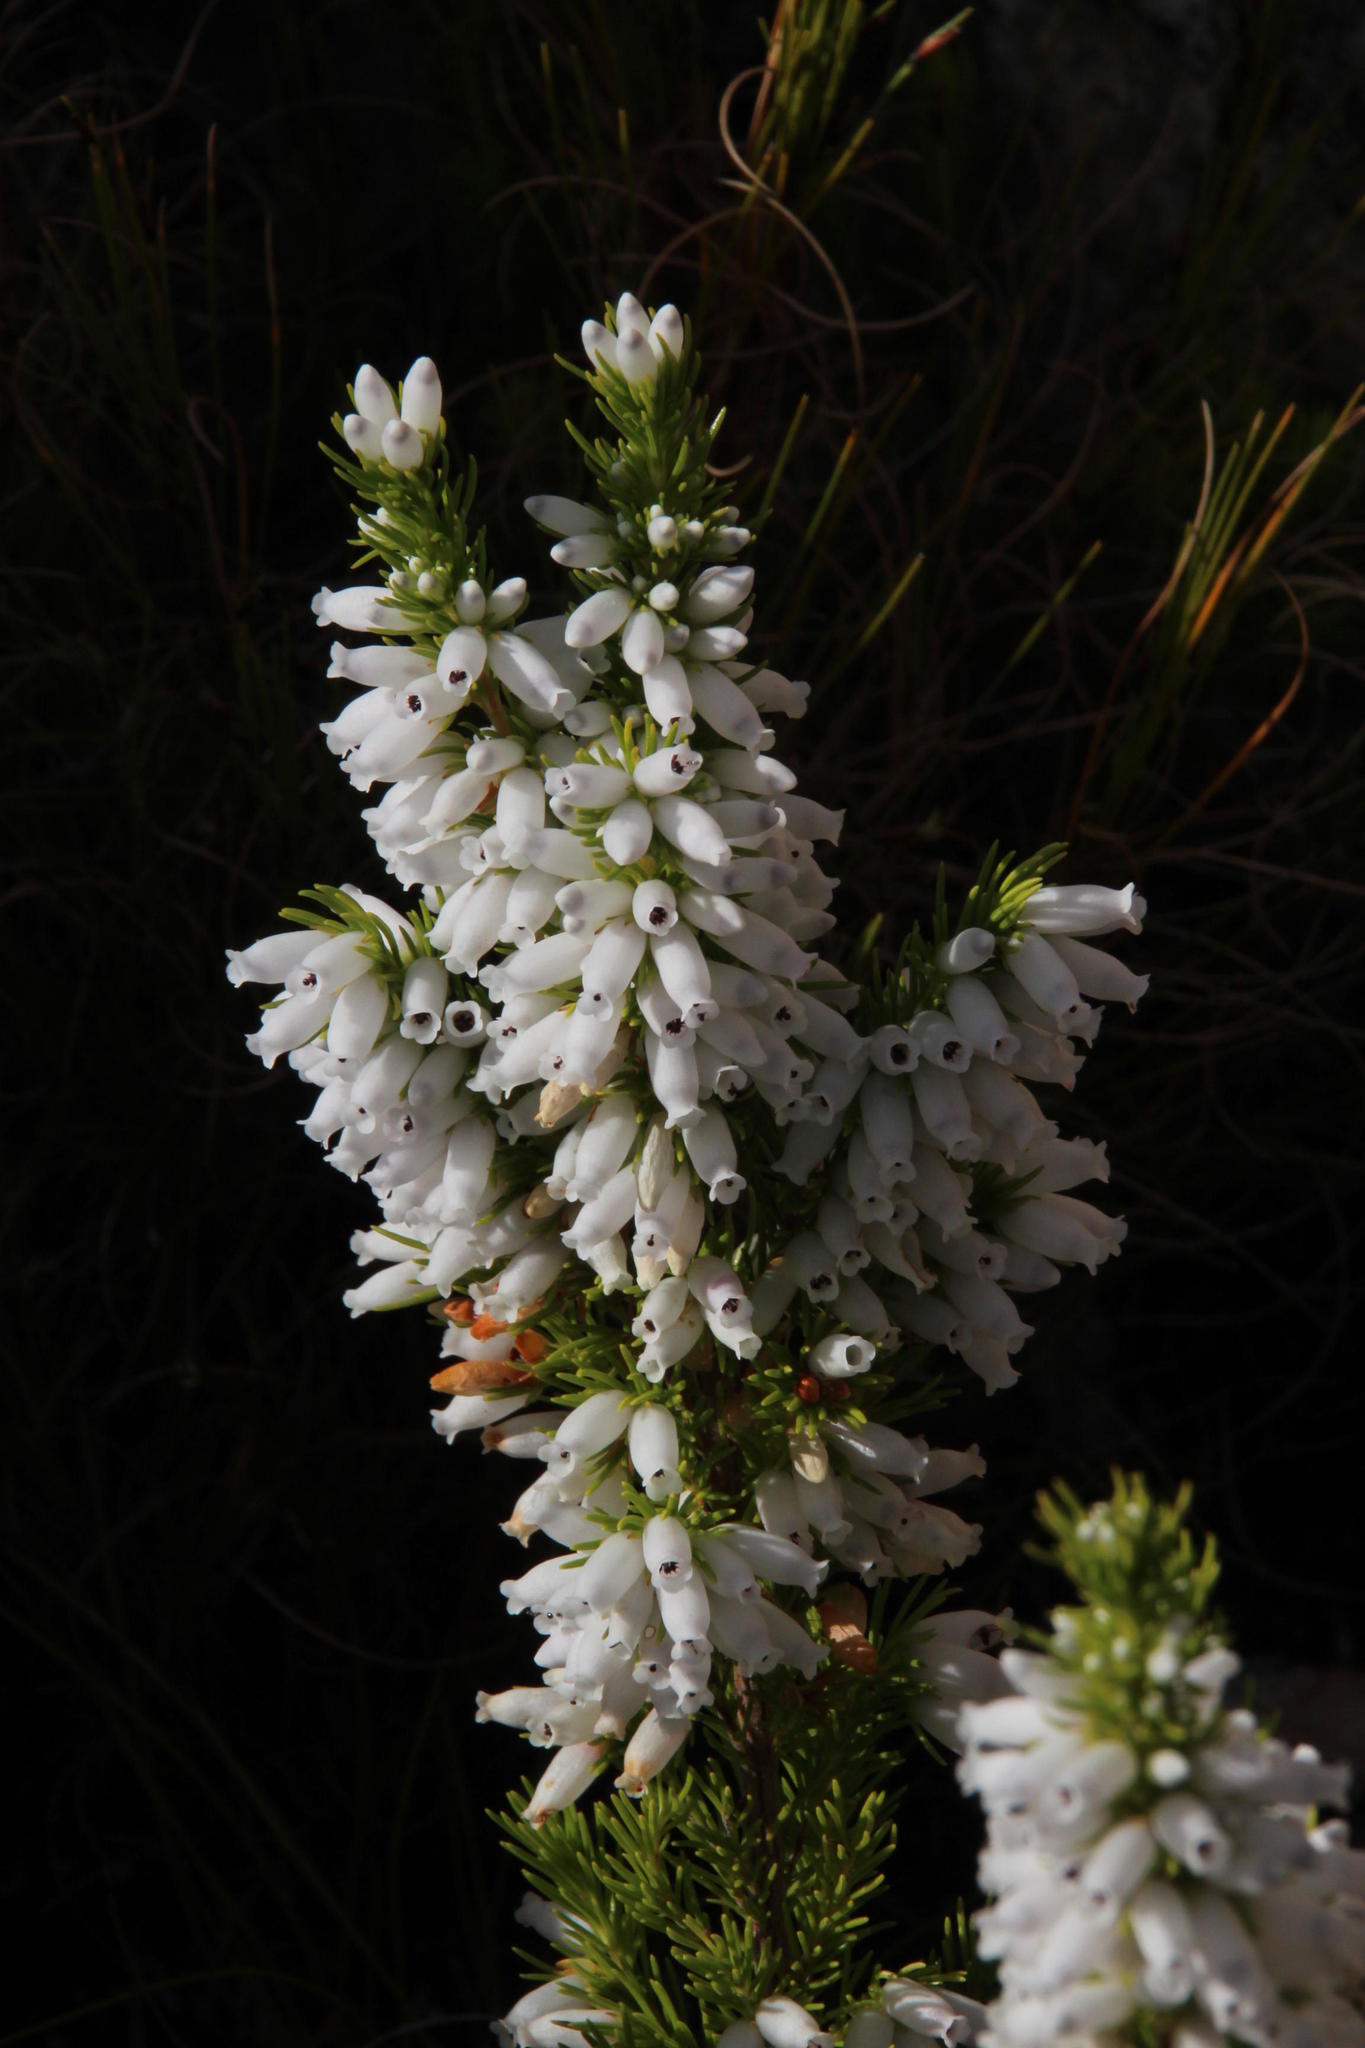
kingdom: Plantae
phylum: Tracheophyta
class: Magnoliopsida
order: Ericales
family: Ericaceae
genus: Erica
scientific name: Erica sitiens
